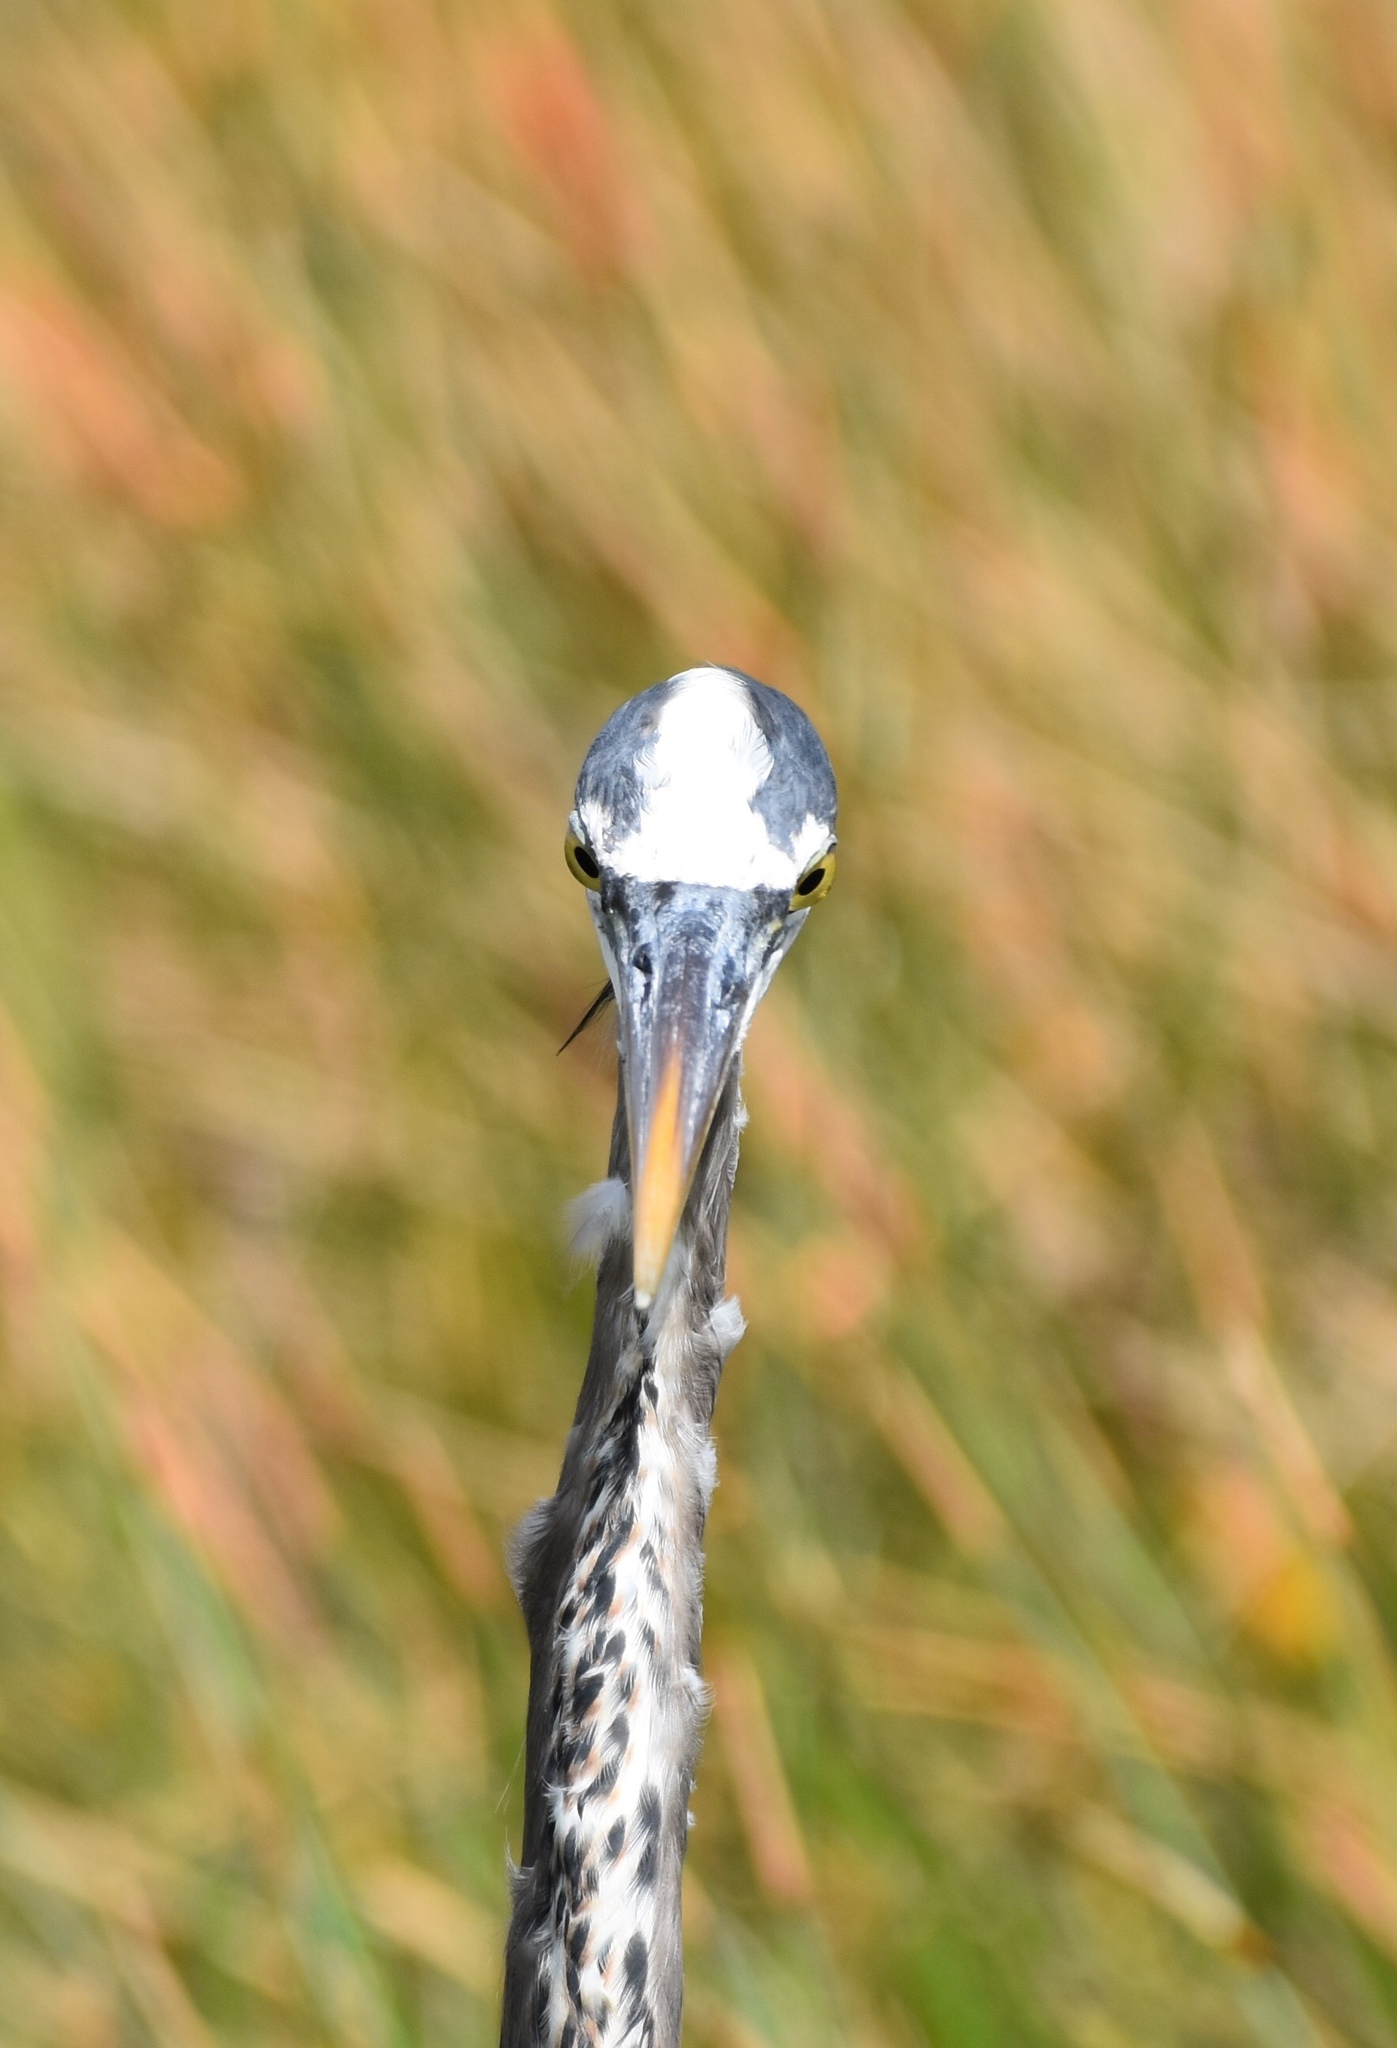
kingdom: Animalia
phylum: Chordata
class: Aves
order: Pelecaniformes
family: Ardeidae
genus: Ardea
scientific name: Ardea herodias
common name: Great blue heron
